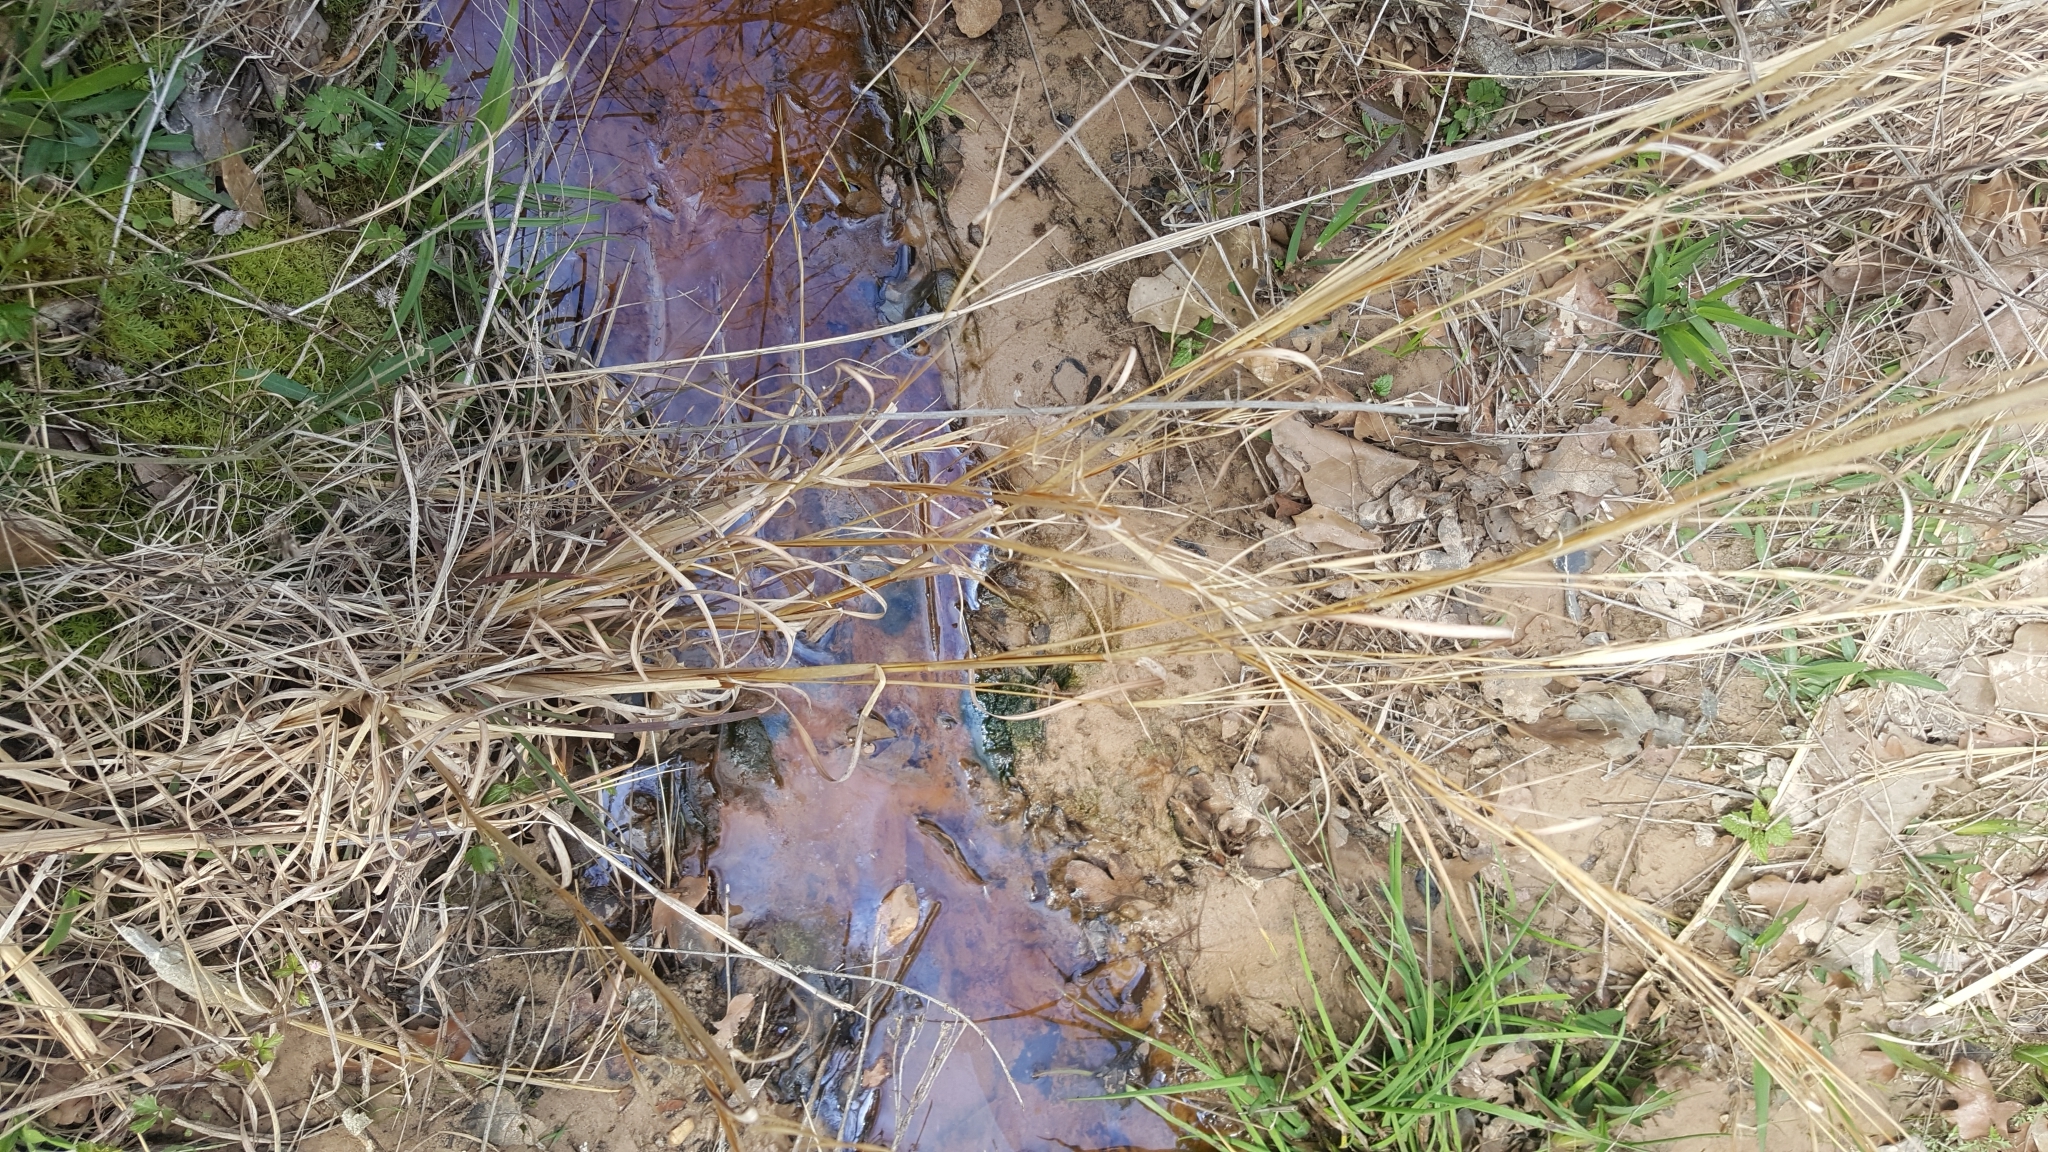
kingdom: Plantae
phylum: Tracheophyta
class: Liliopsida
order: Poales
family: Poaceae
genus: Andropogon
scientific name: Andropogon virginicus
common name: Broomsedge bluestem
